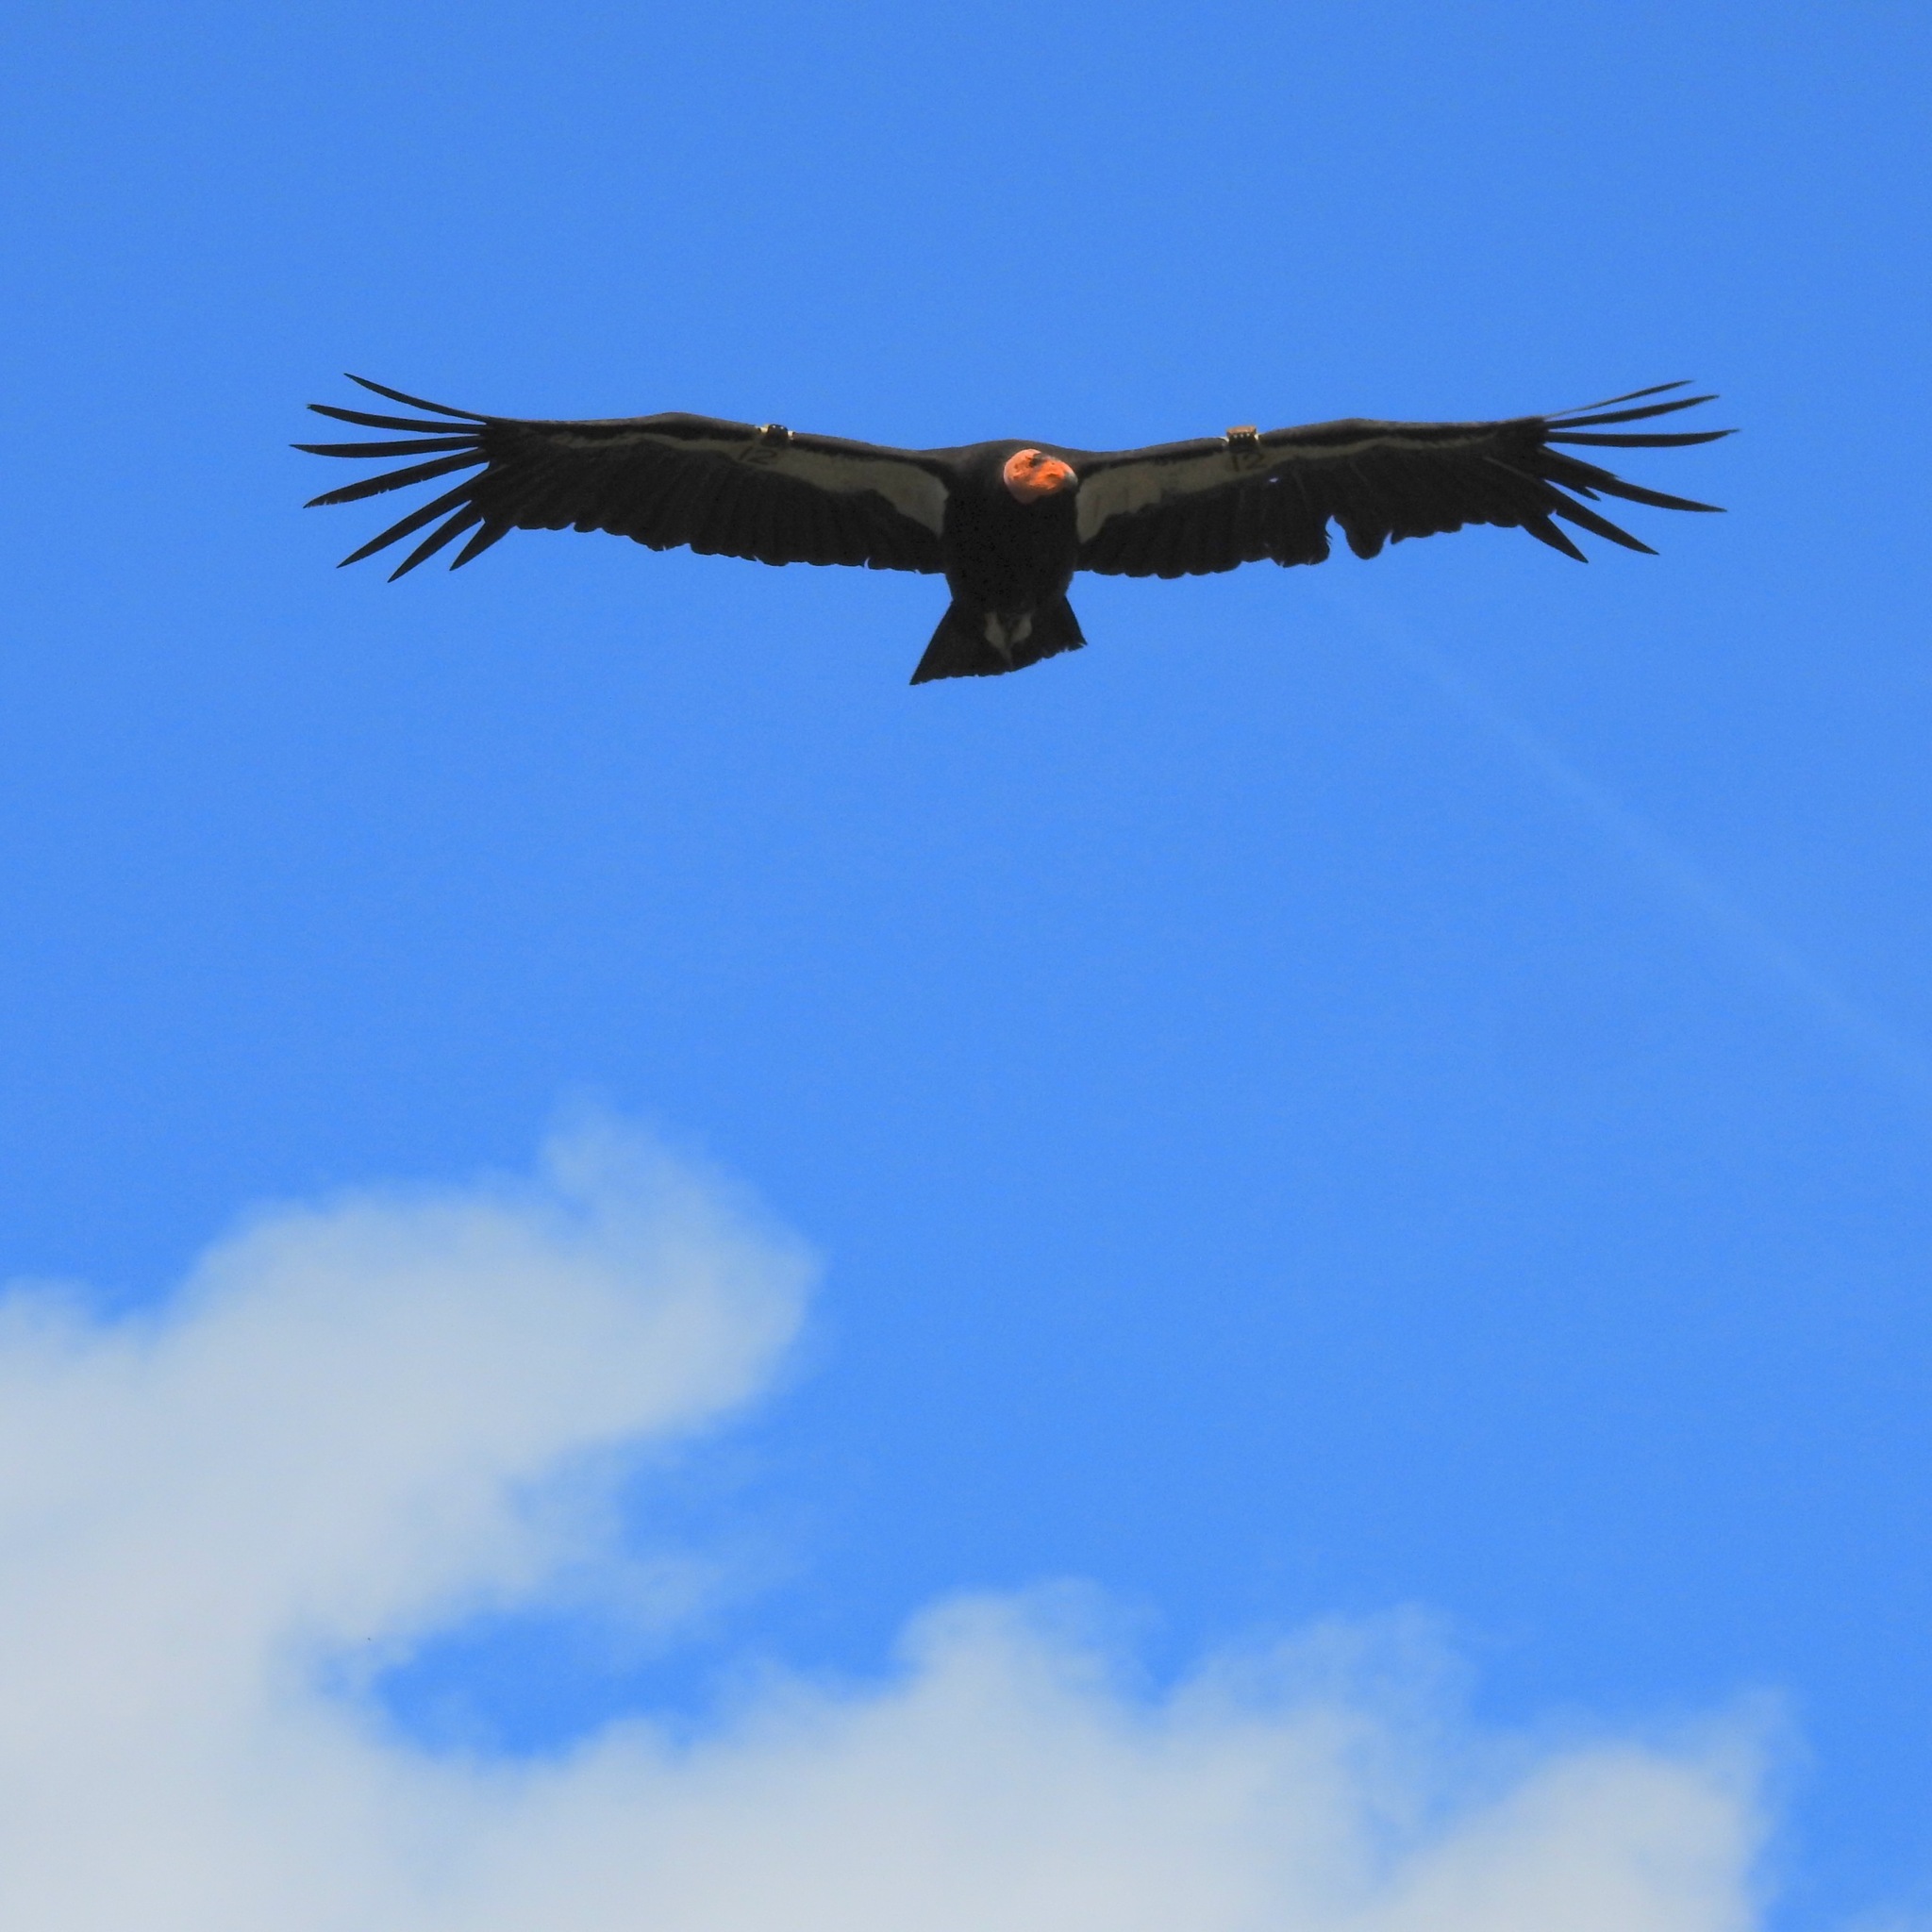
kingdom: Animalia
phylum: Chordata
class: Aves
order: Accipitriformes
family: Cathartidae
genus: Gymnogyps
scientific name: Gymnogyps californianus
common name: California condor
